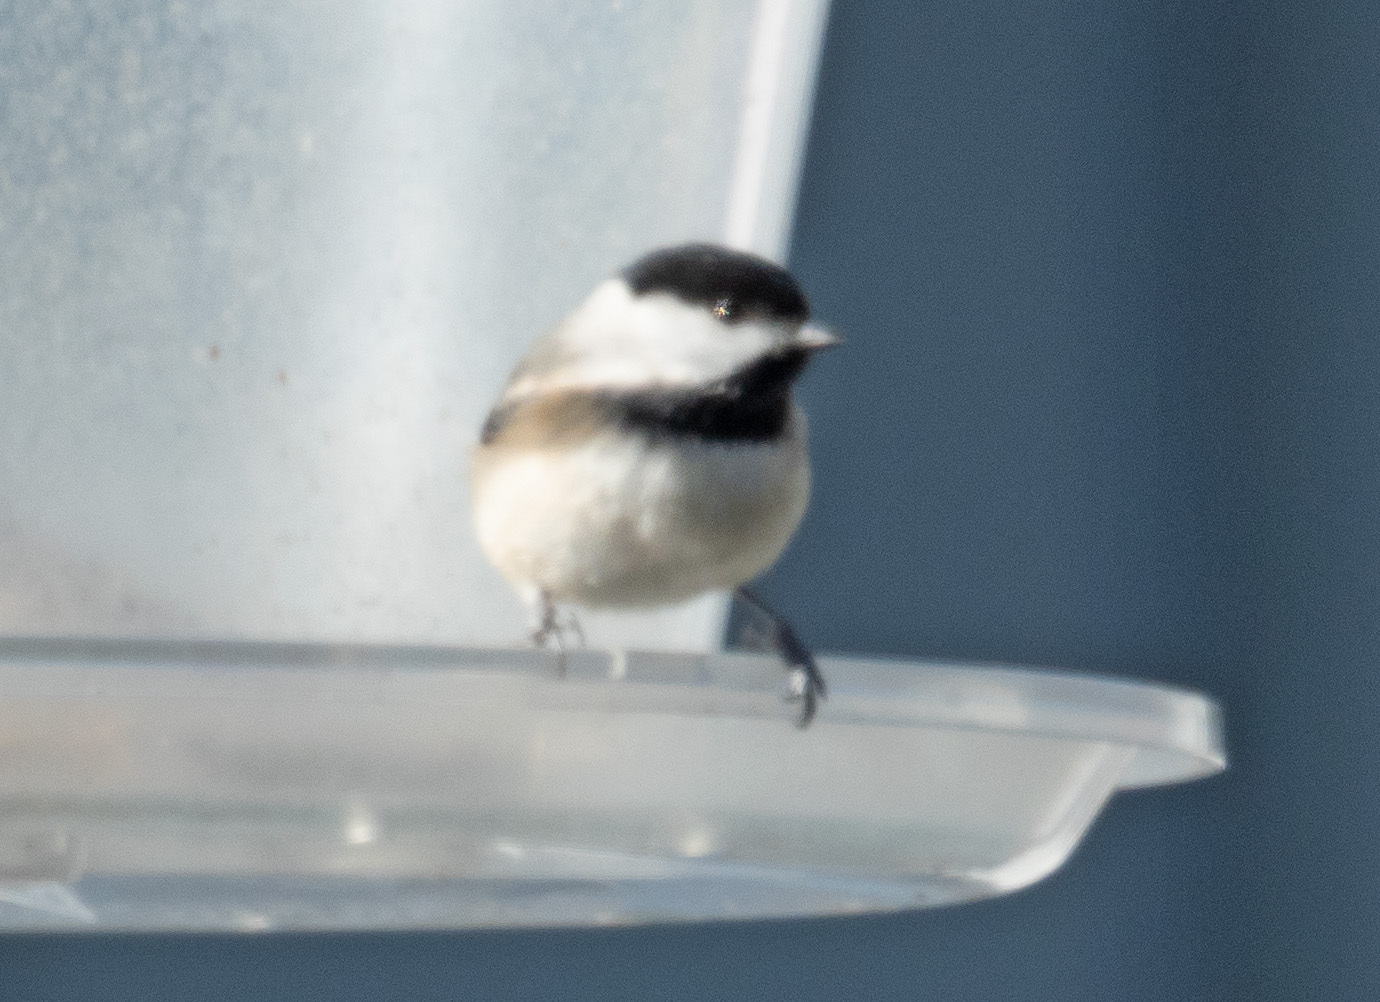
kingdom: Animalia
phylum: Chordata
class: Aves
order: Passeriformes
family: Paridae
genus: Poecile
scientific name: Poecile carolinensis
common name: Carolina chickadee
